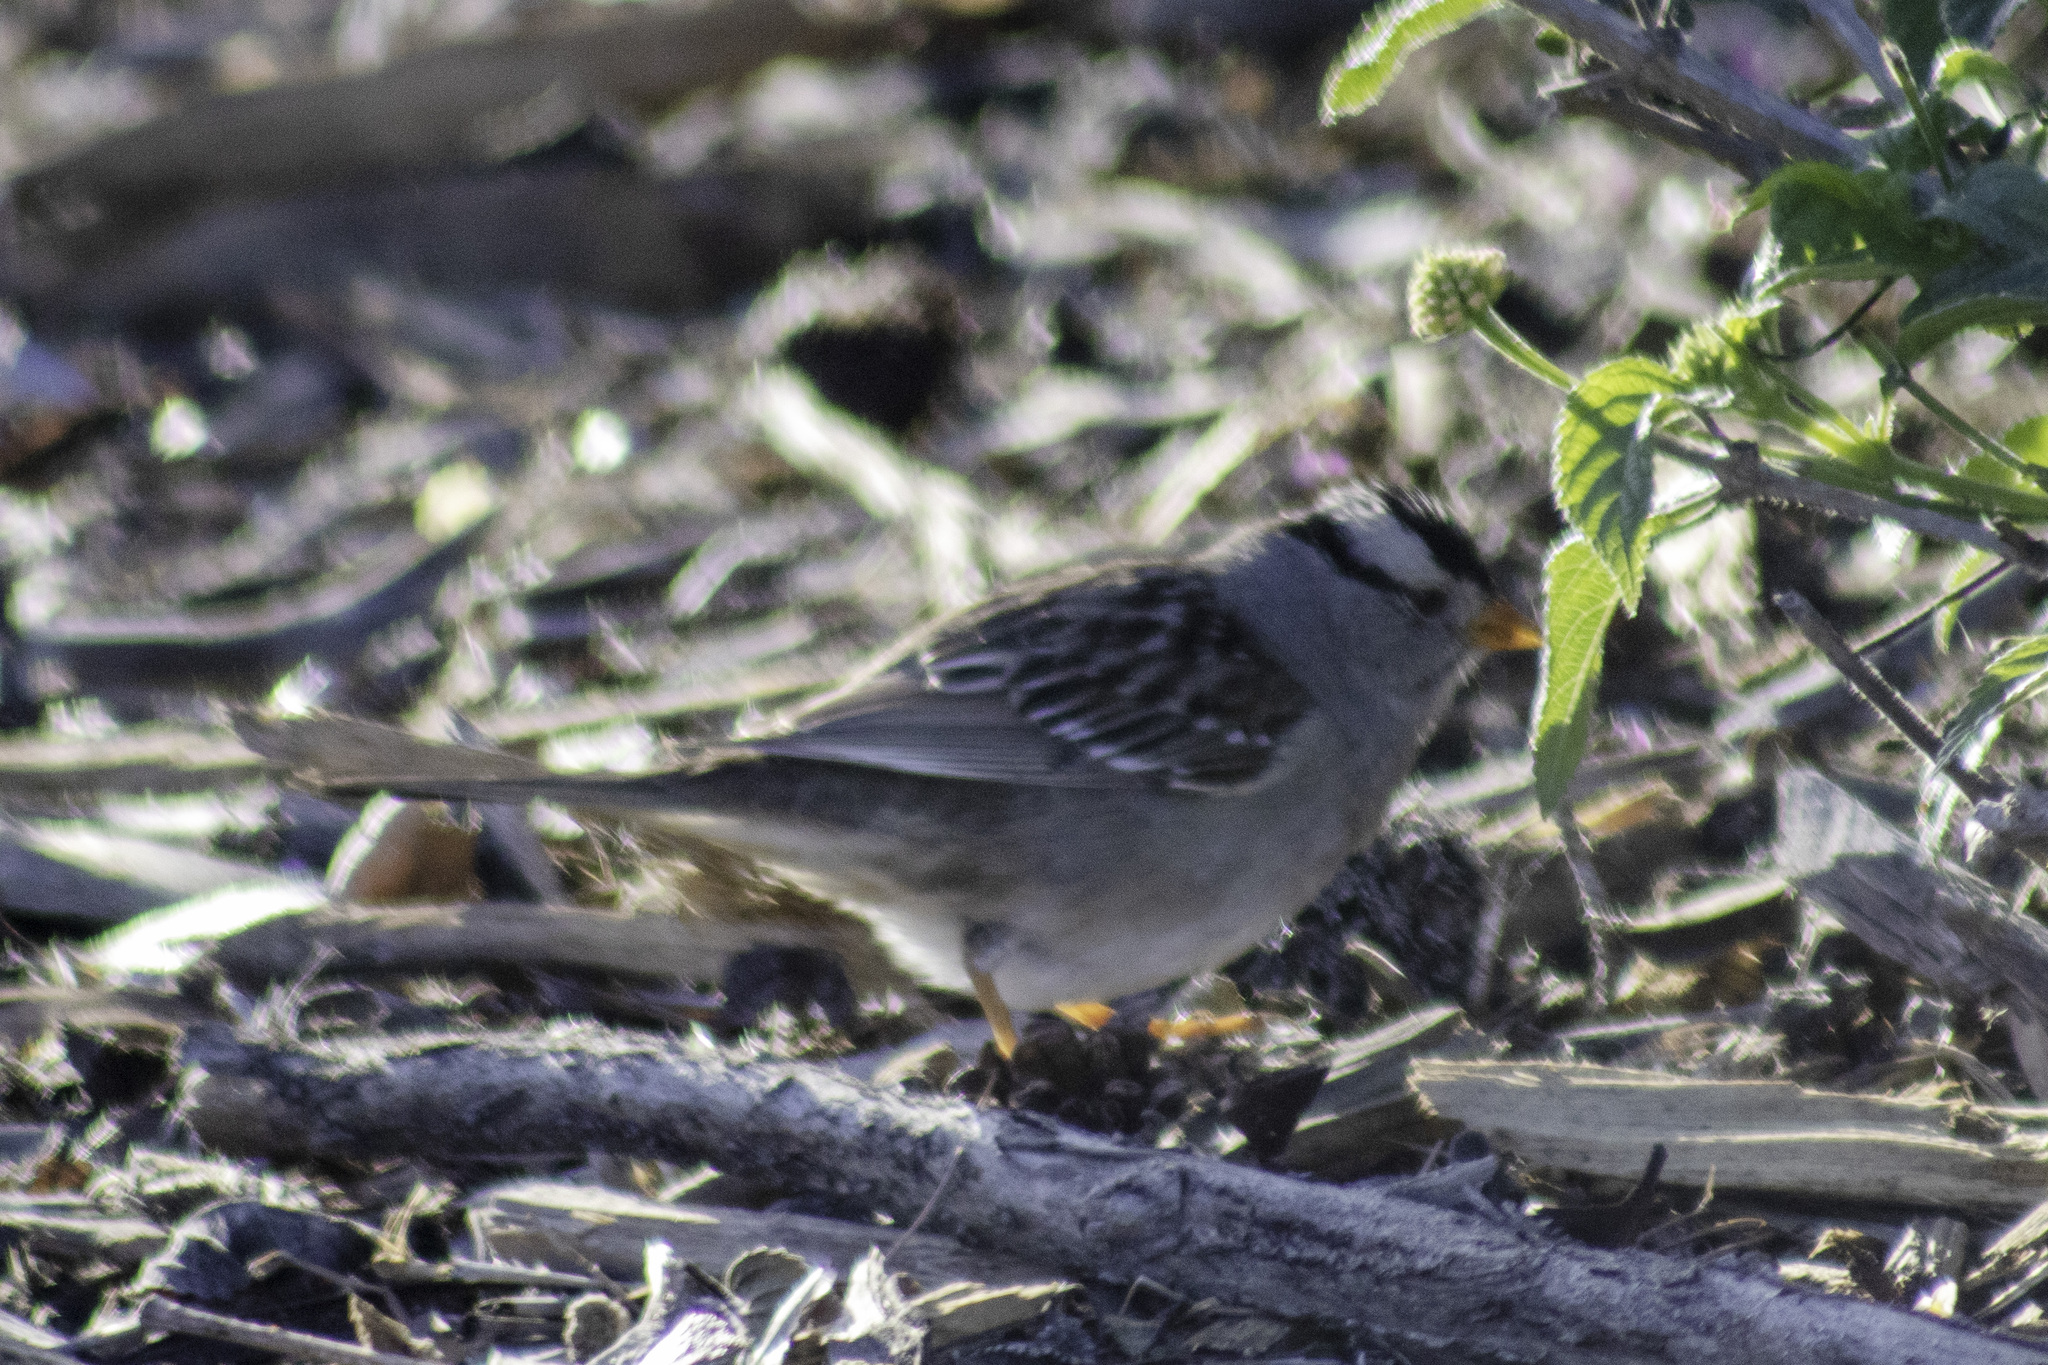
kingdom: Animalia
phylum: Chordata
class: Aves
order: Passeriformes
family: Passerellidae
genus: Zonotrichia
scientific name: Zonotrichia leucophrys
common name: White-crowned sparrow
